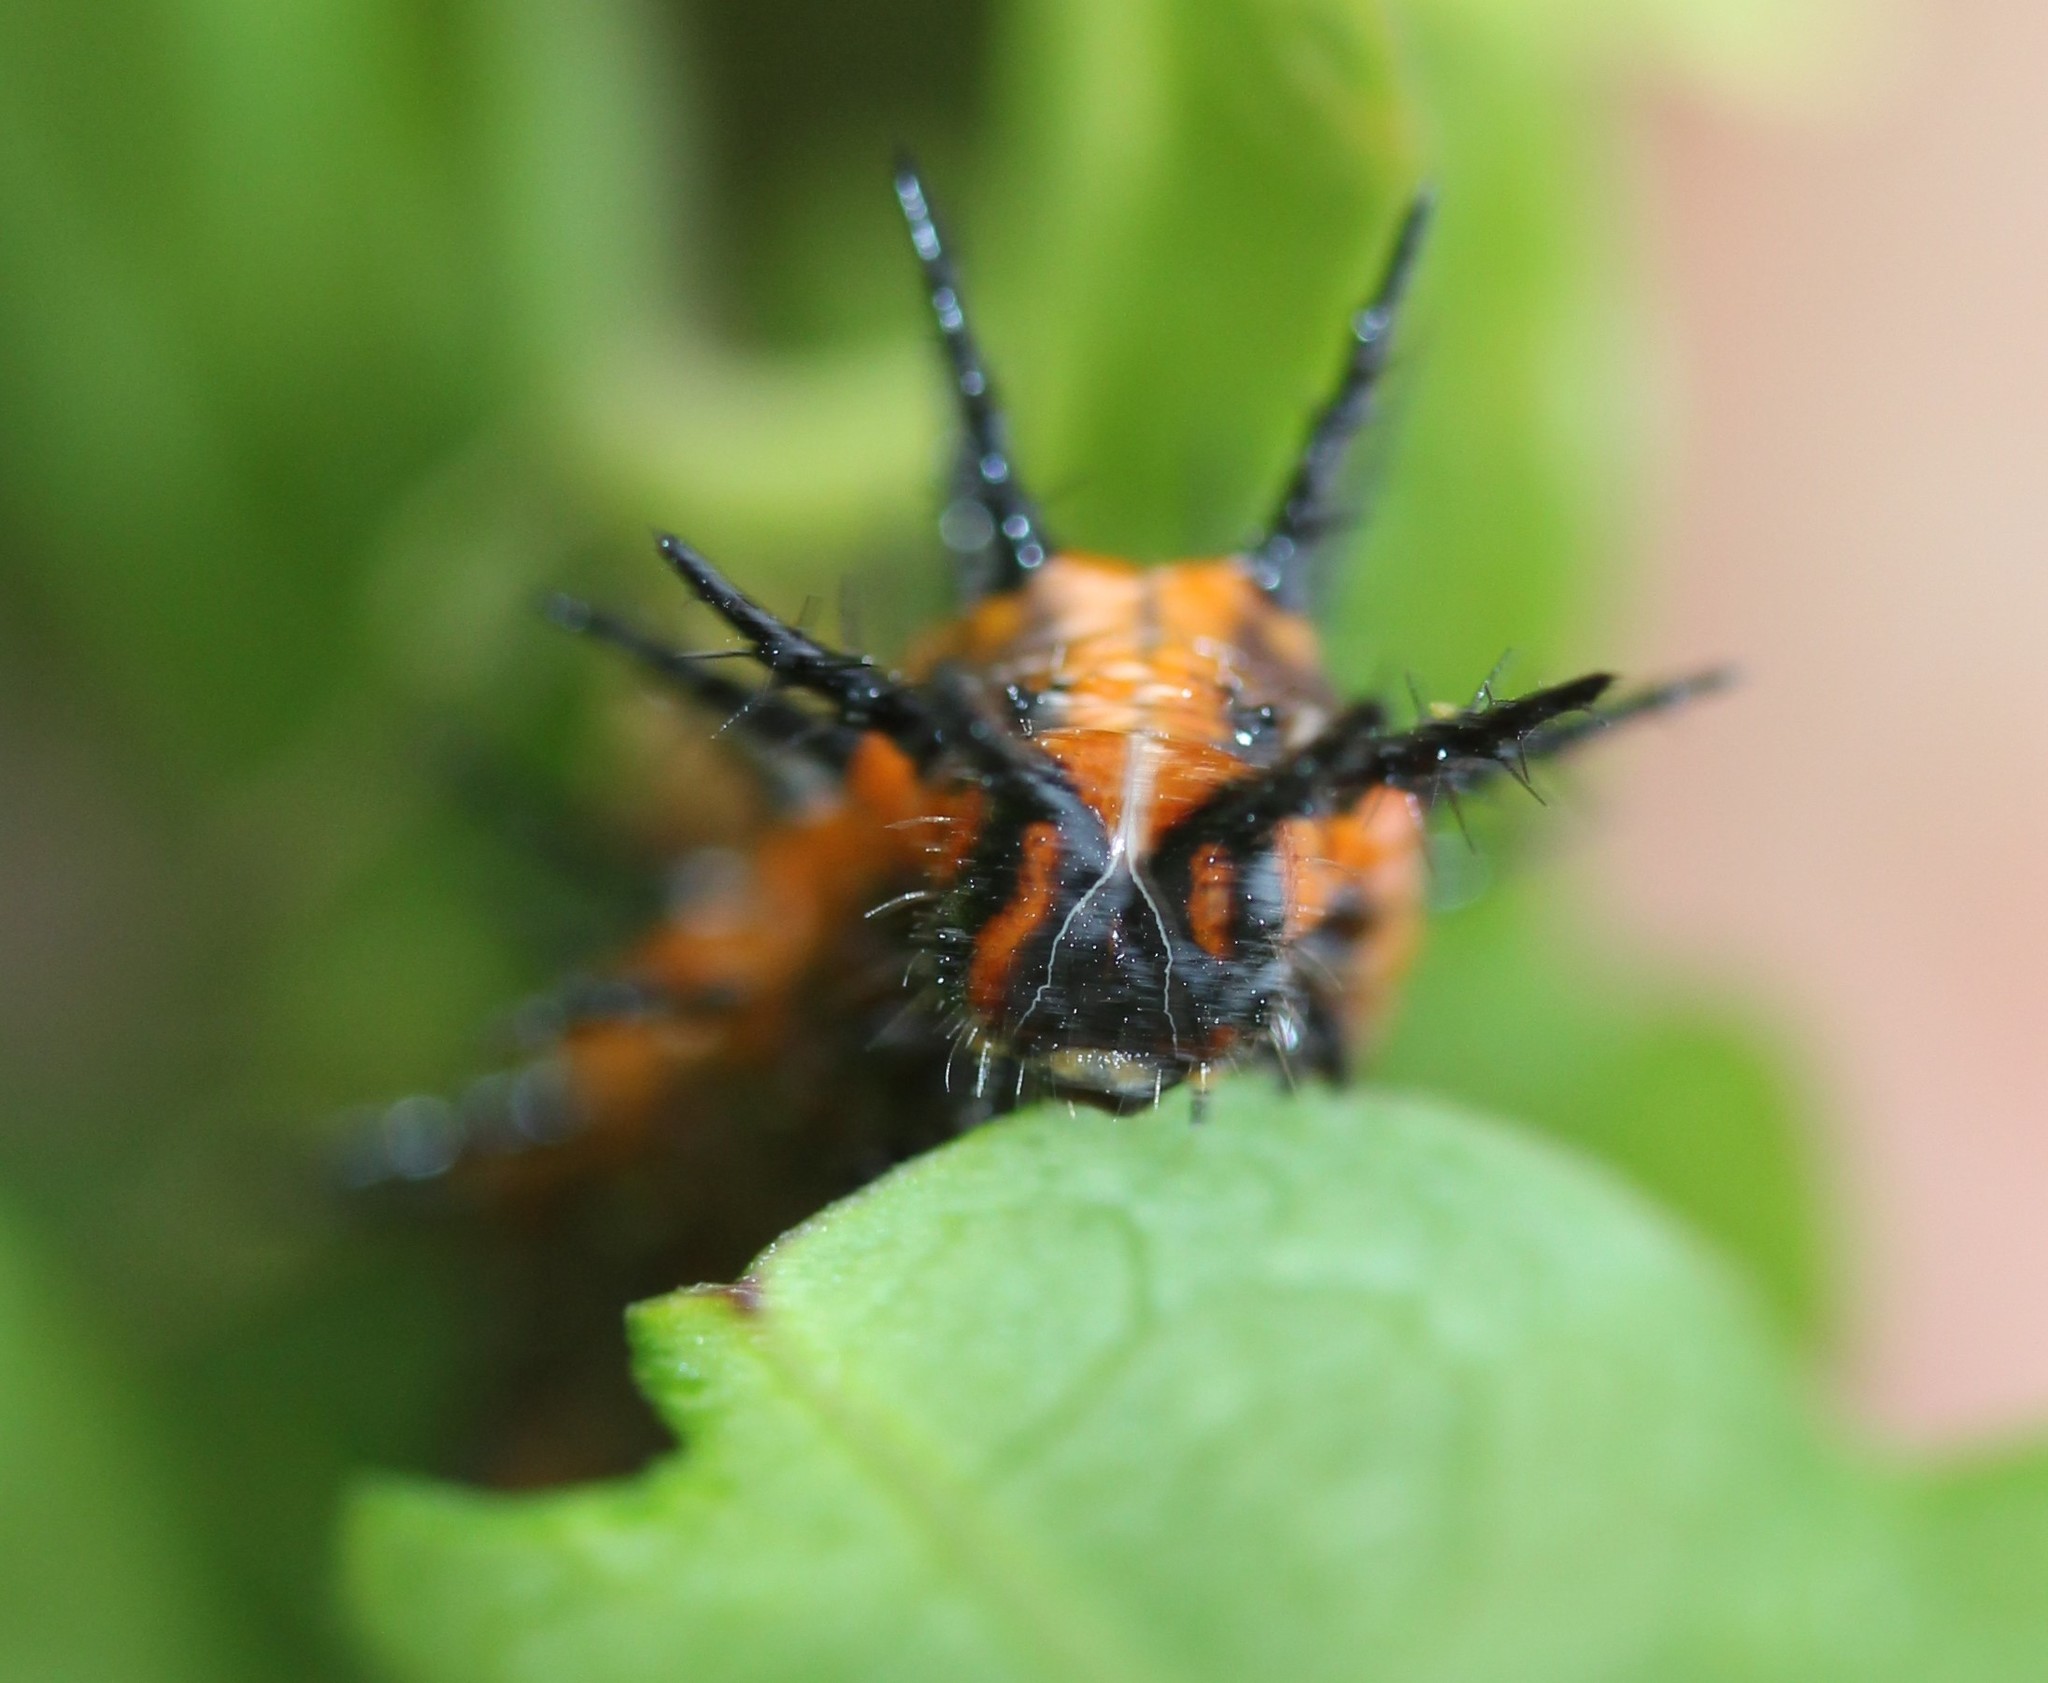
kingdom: Animalia
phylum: Arthropoda
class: Insecta
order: Lepidoptera
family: Nymphalidae
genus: Dione
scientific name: Dione vanillae
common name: Gulf fritillary
